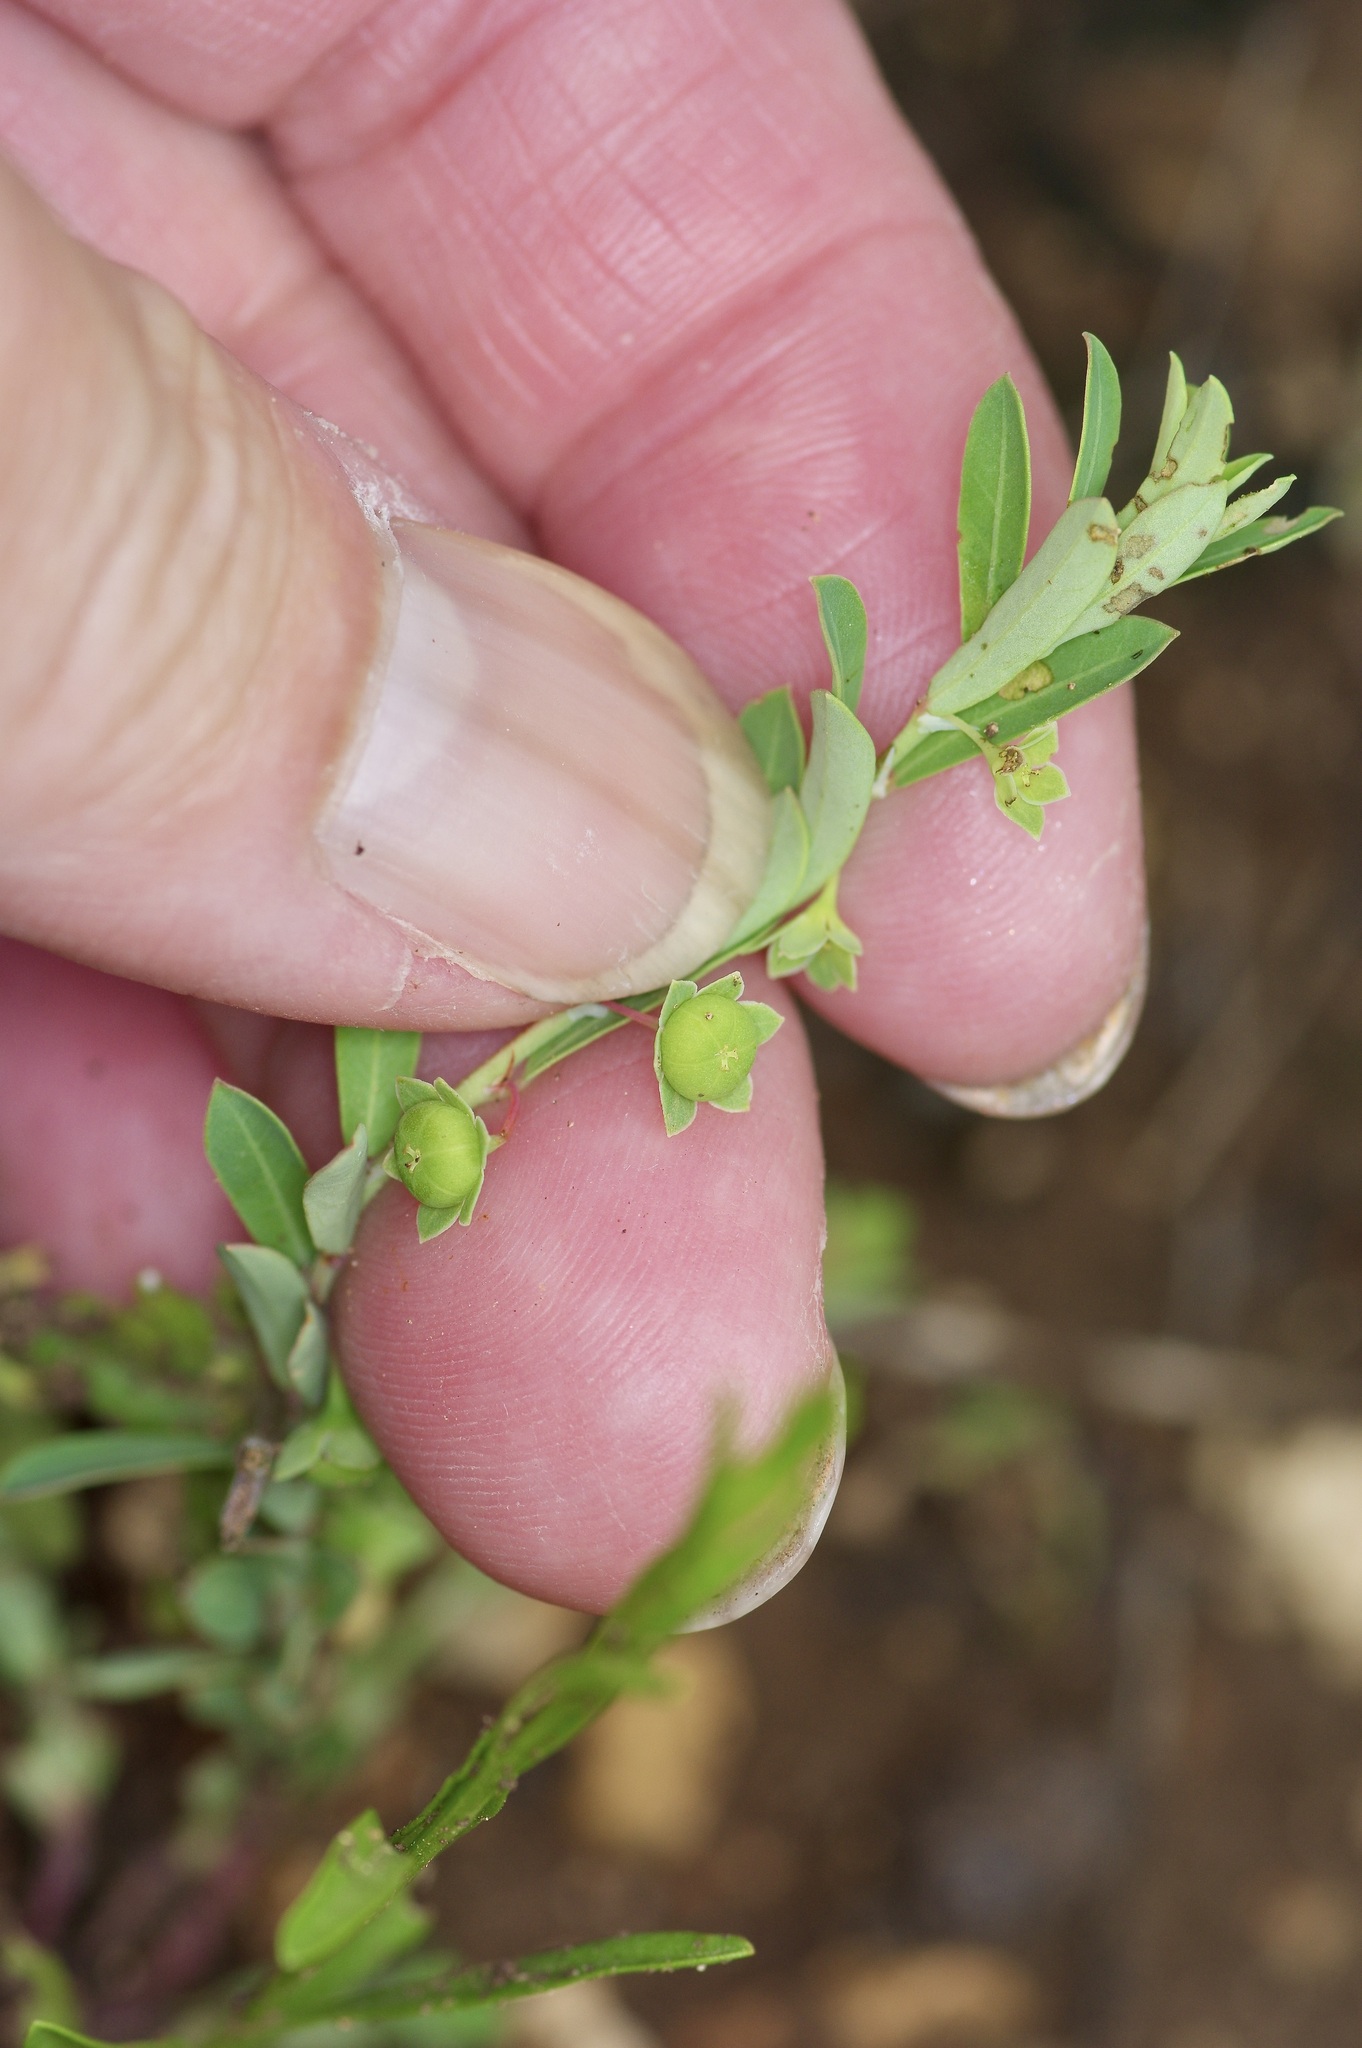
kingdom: Plantae
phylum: Tracheophyta
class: Magnoliopsida
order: Malpighiales
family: Phyllanthaceae
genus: Phyllanthus
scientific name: Phyllanthus polygonoides
